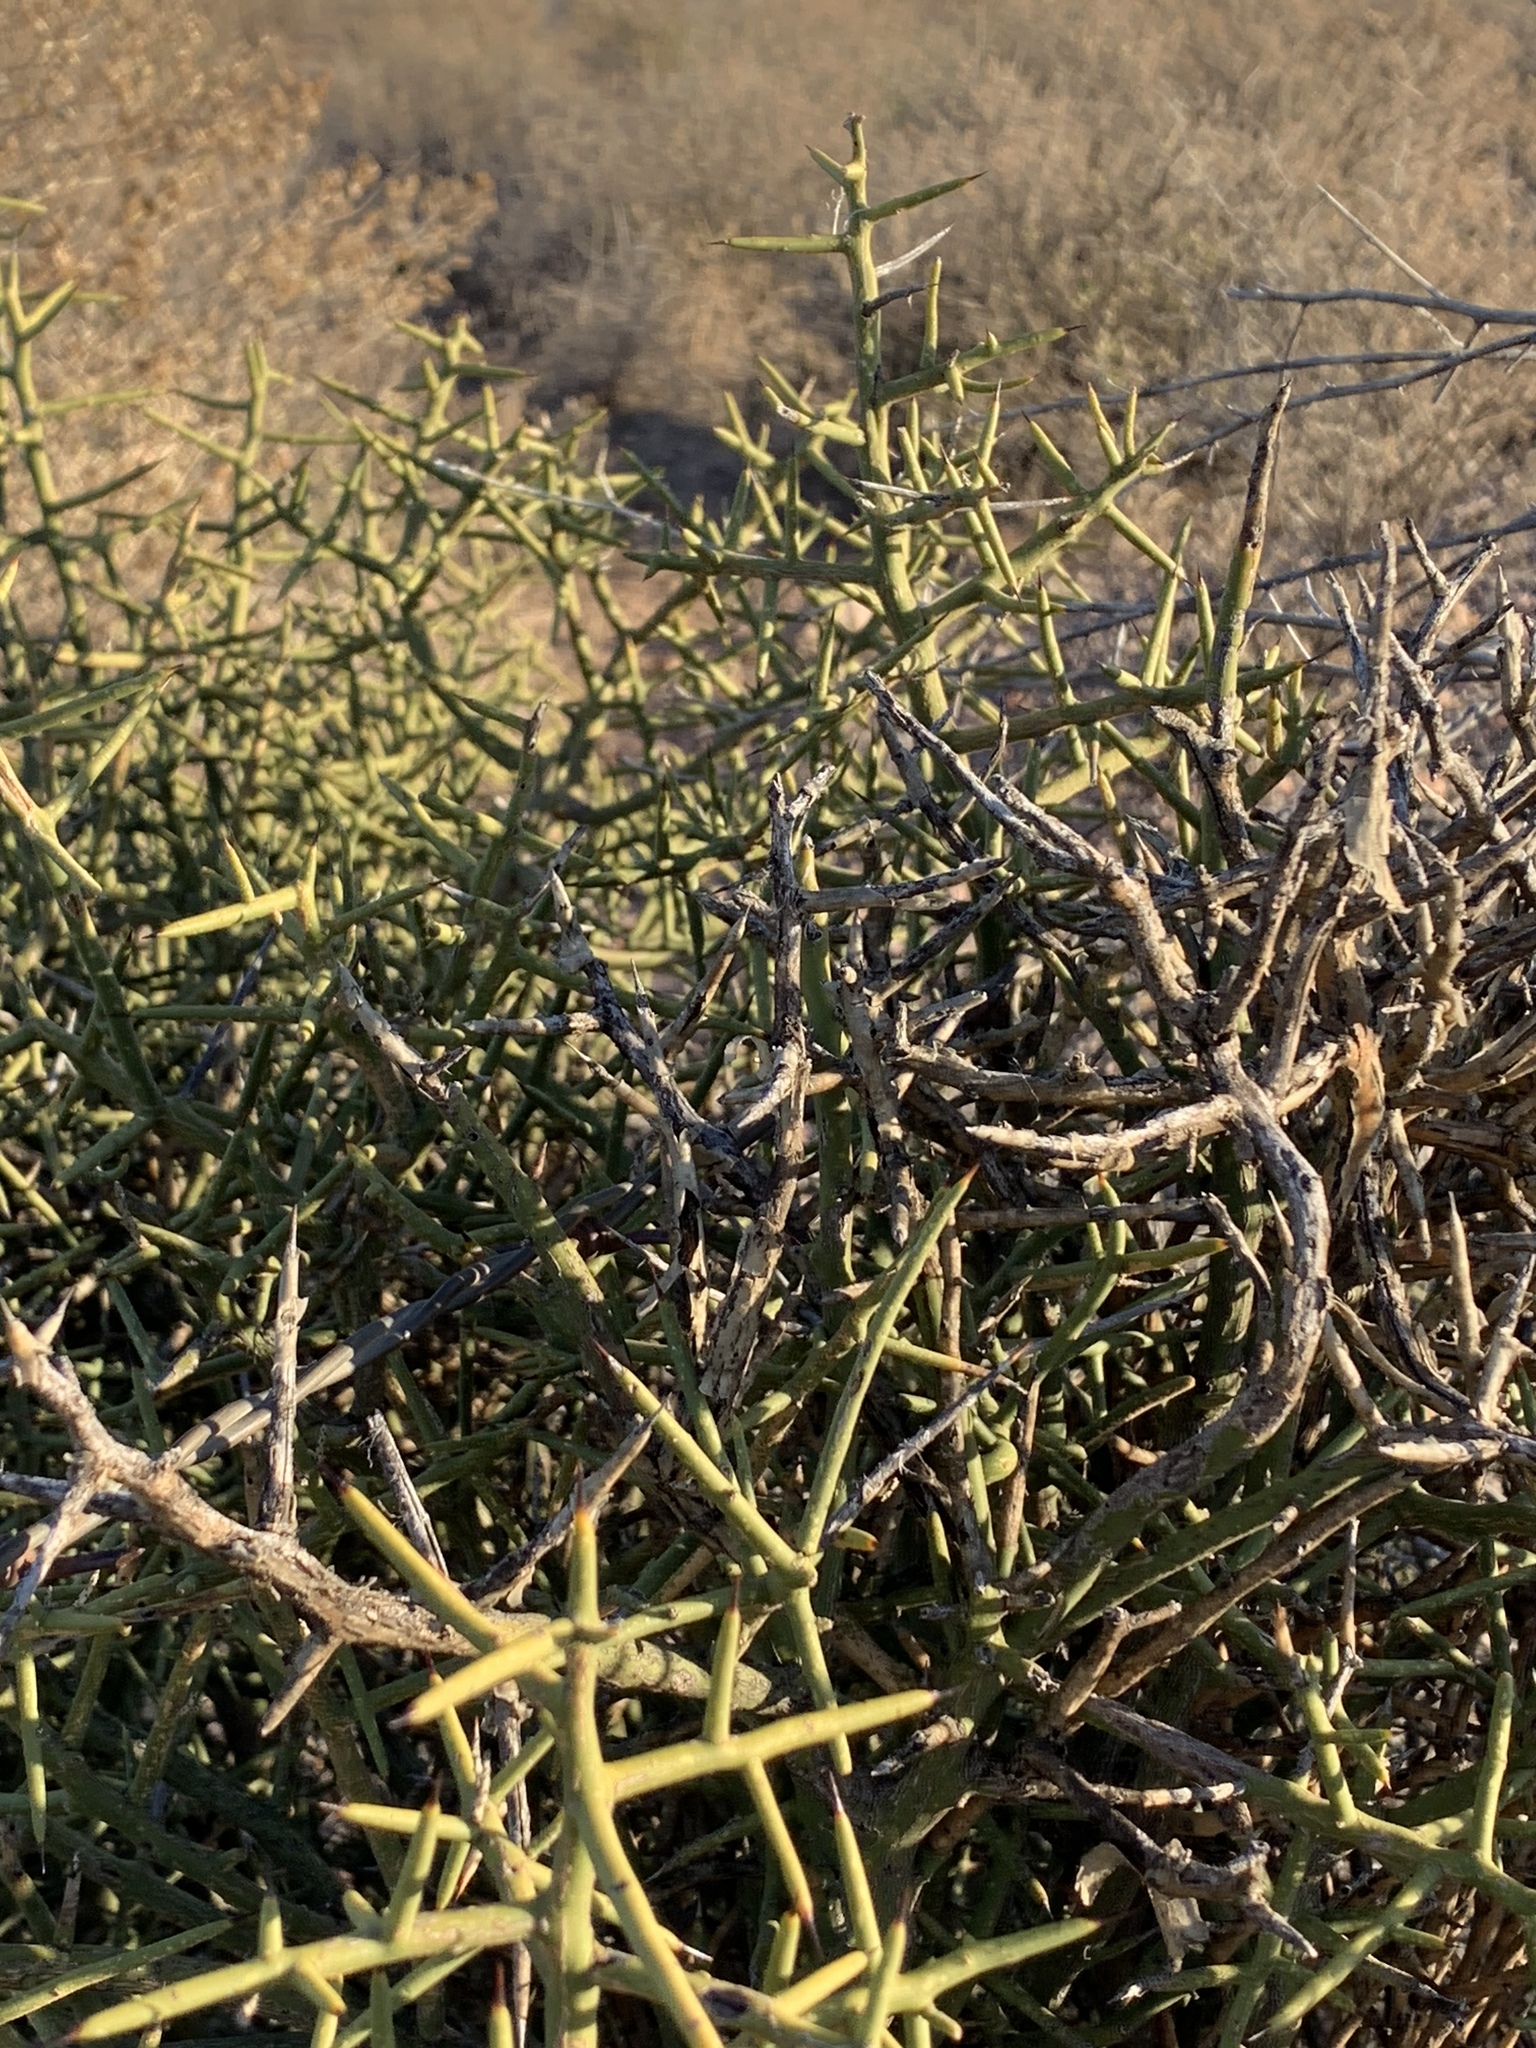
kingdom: Plantae
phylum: Tracheophyta
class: Magnoliopsida
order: Brassicales
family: Koeberliniaceae
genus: Koeberlinia
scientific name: Koeberlinia spinosa
